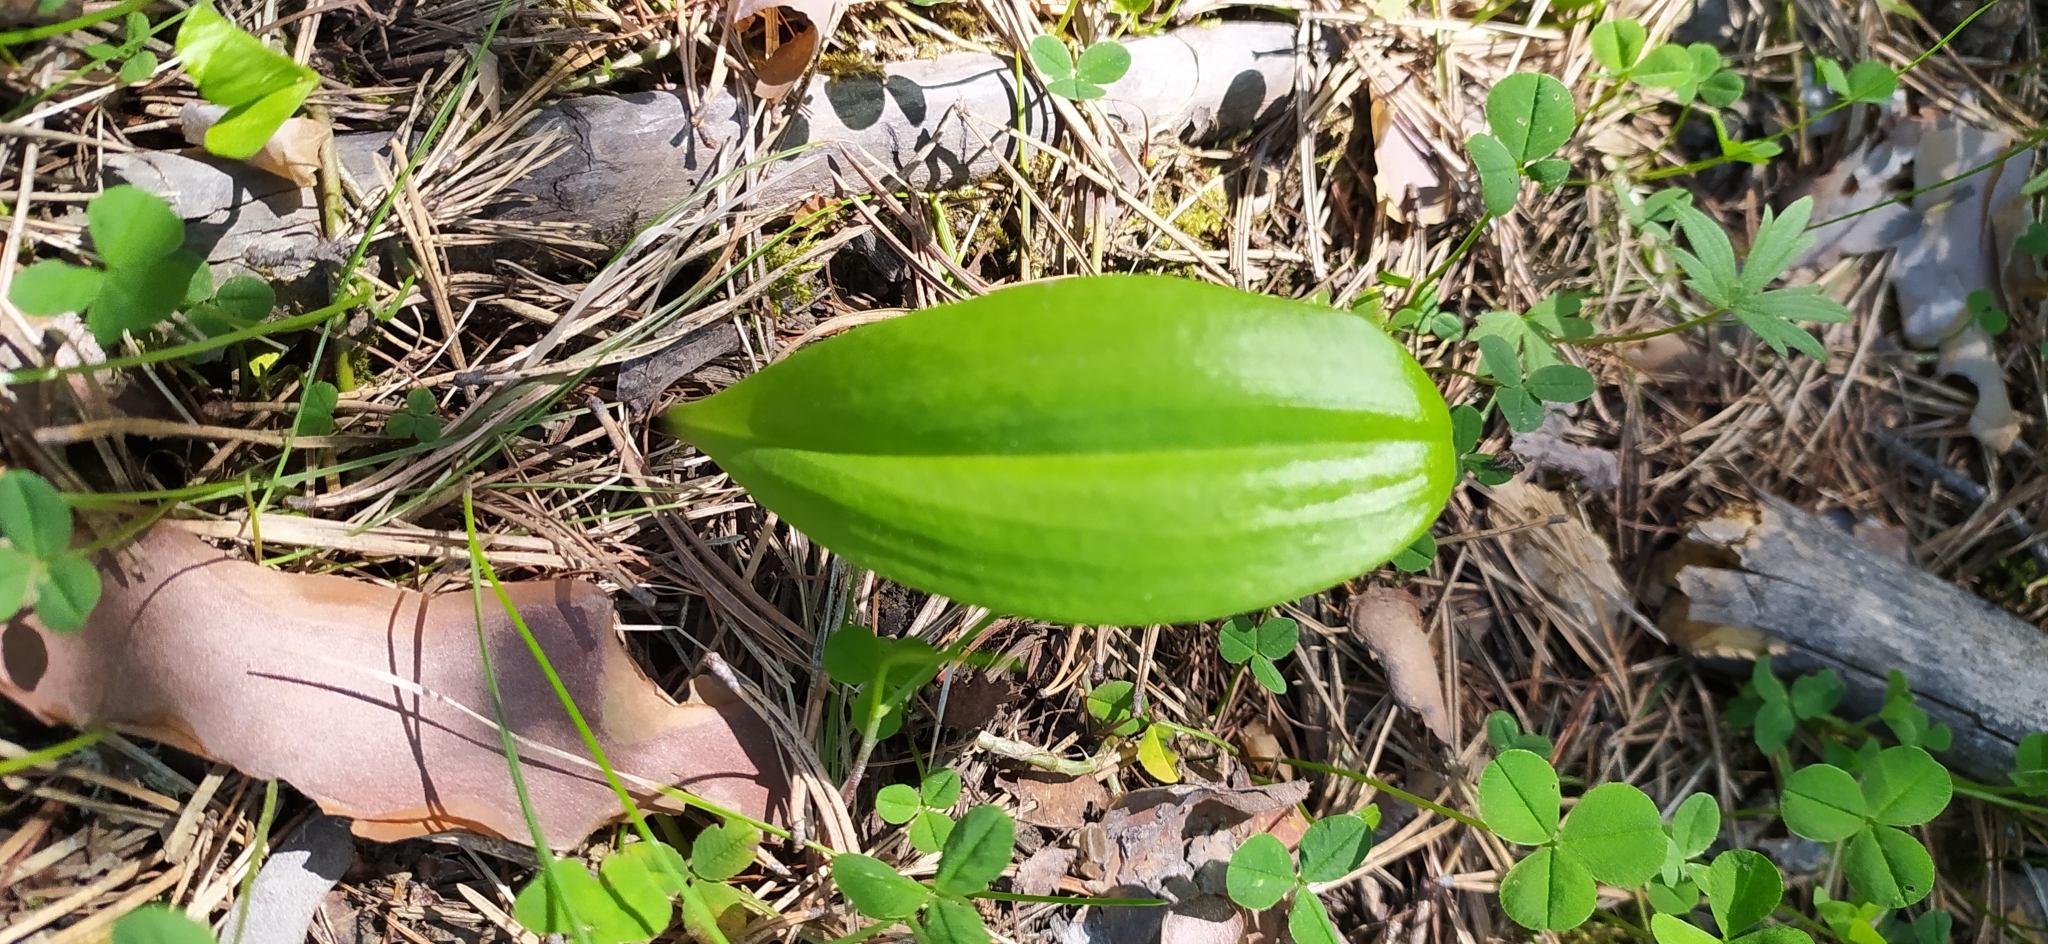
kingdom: Plantae
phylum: Tracheophyta
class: Liliopsida
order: Asparagales
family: Orchidaceae
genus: Platanthera
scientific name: Platanthera bifolia
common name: Lesser butterfly-orchid
